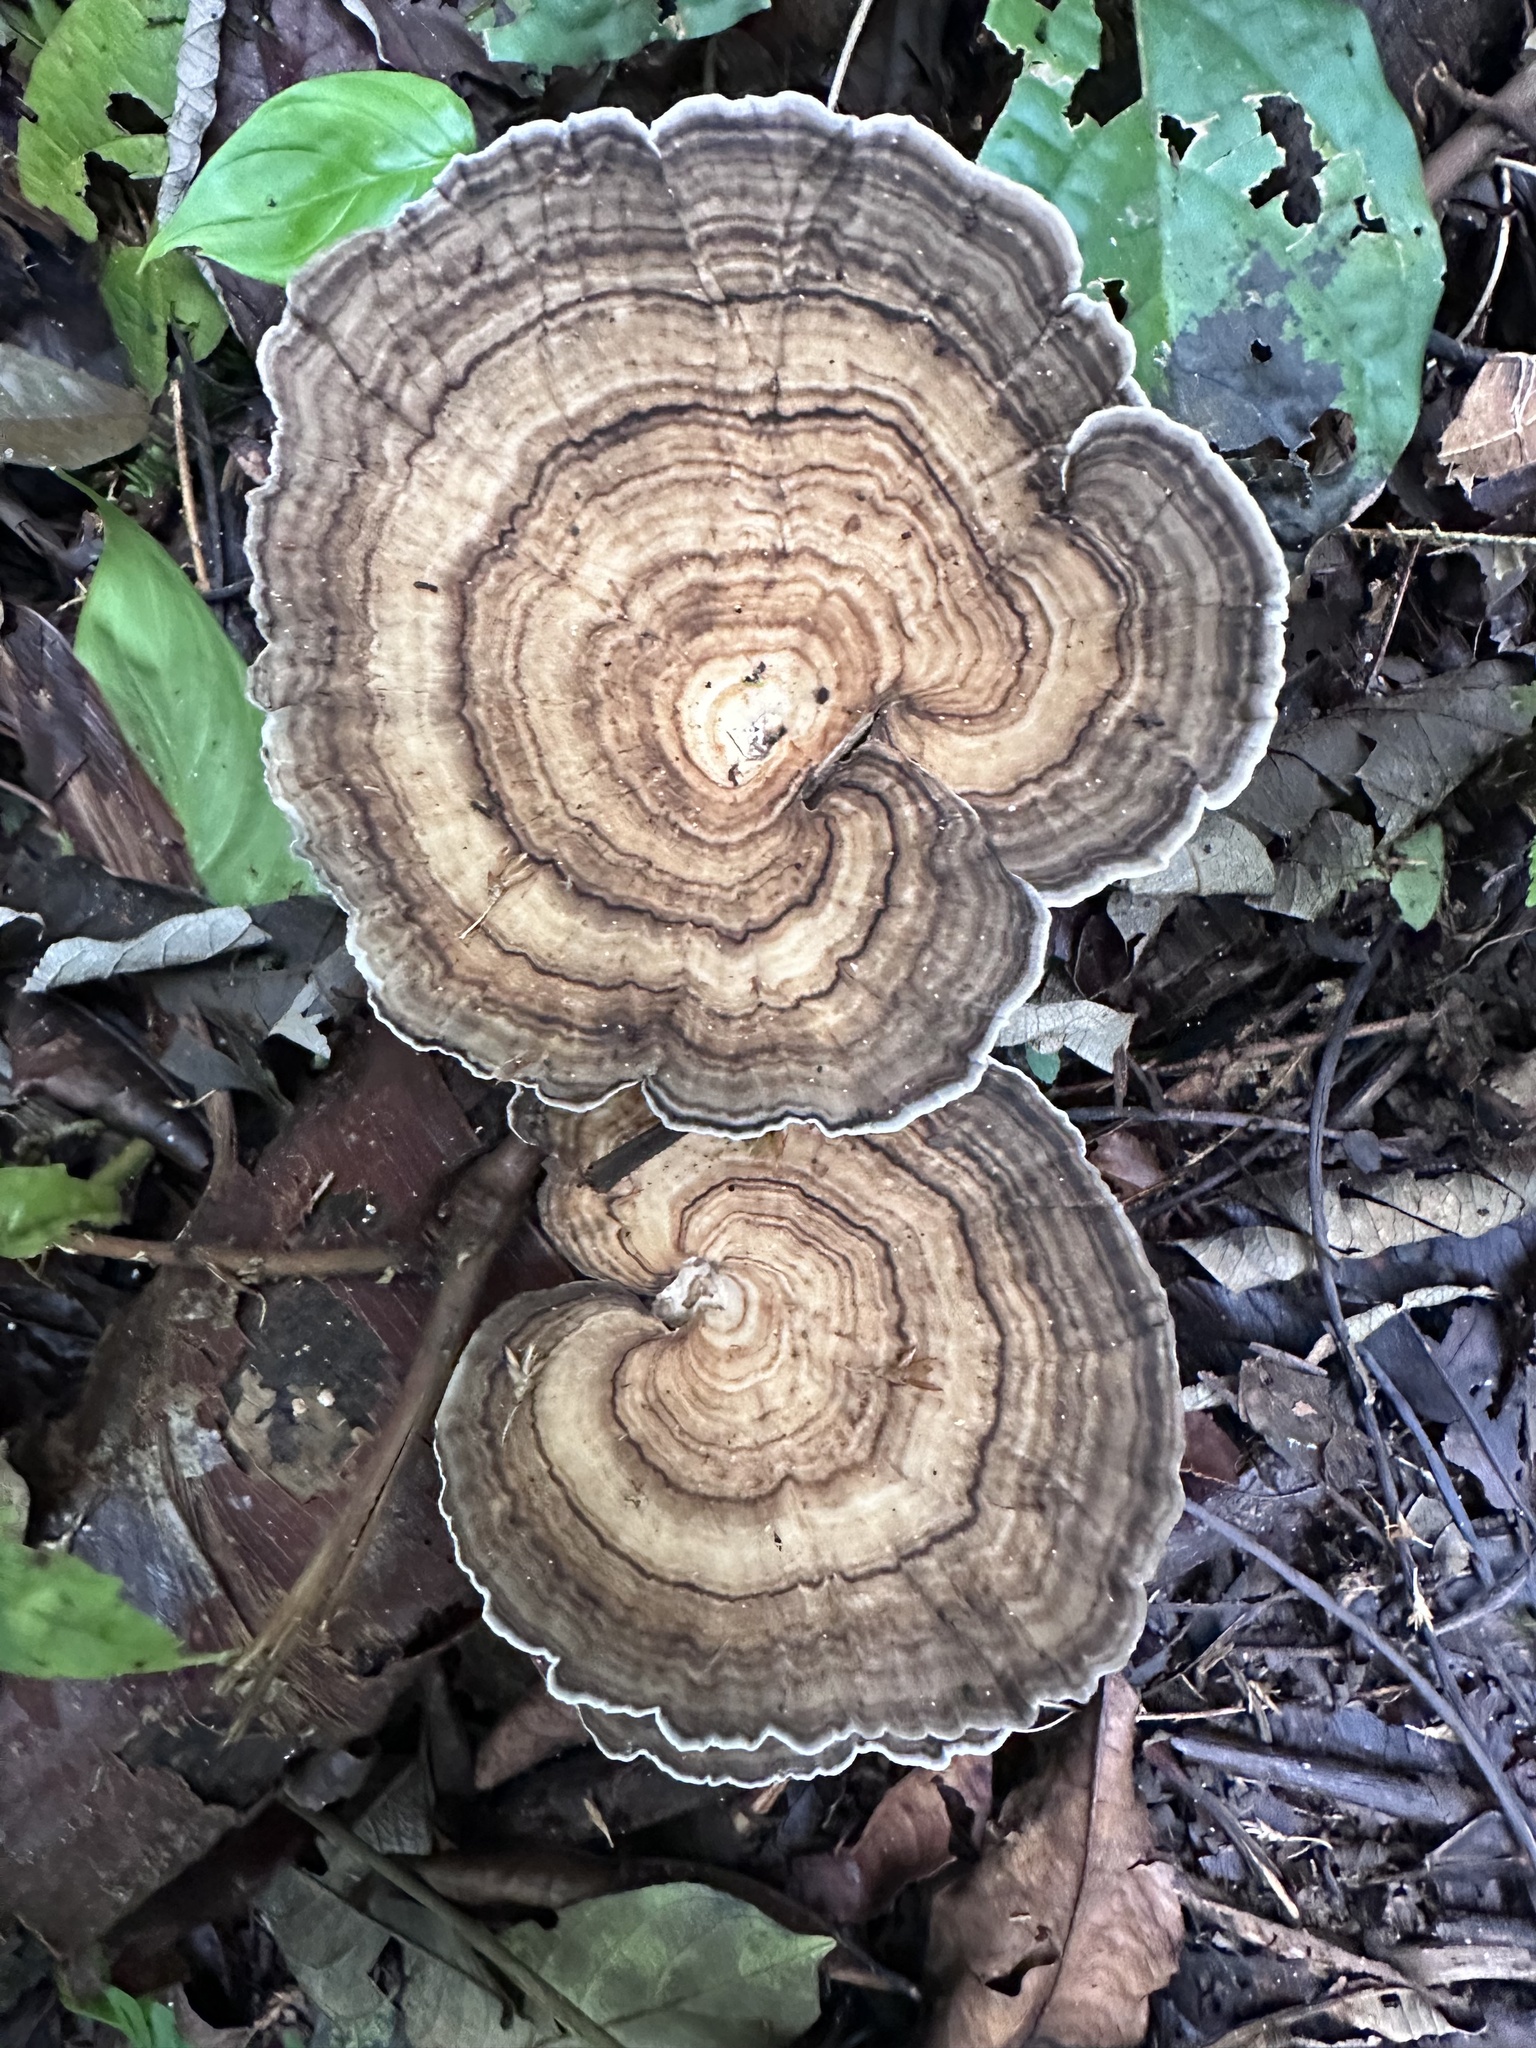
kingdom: Fungi
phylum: Basidiomycota
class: Agaricomycetes
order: Polyporales
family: Polyporaceae
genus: Cubamyces
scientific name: Cubamyces menziesii
